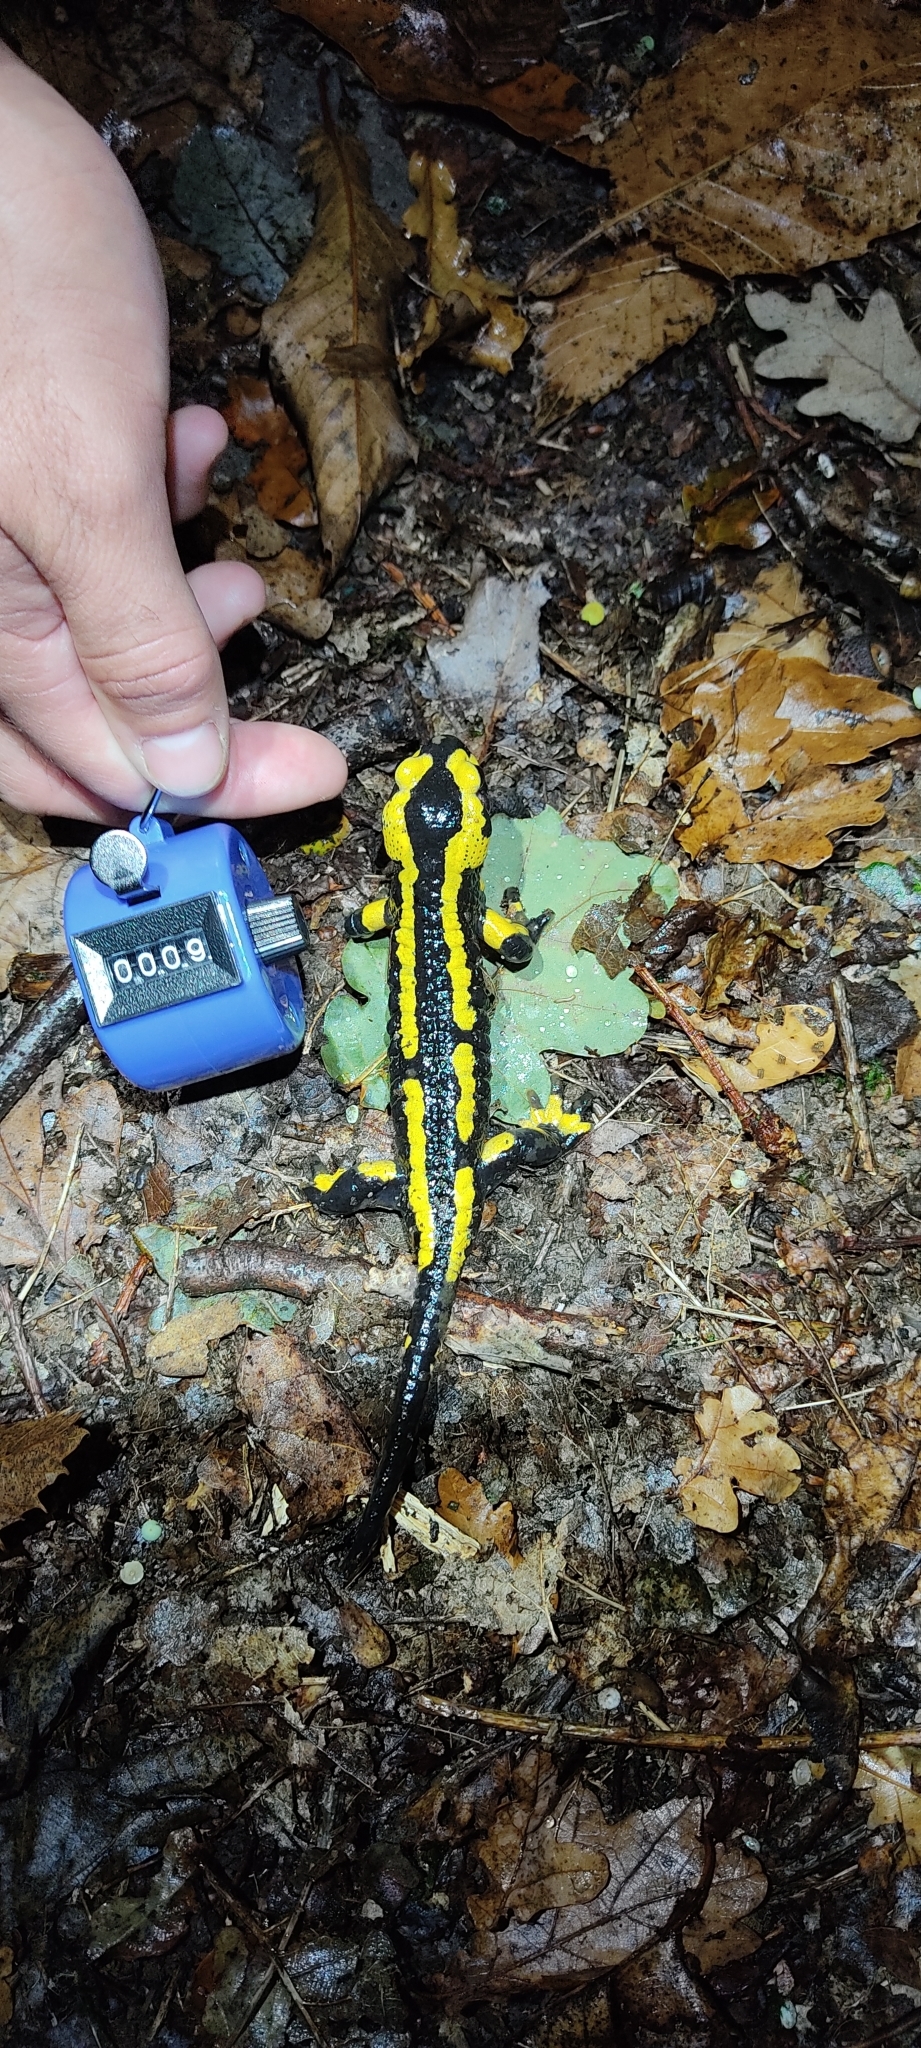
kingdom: Animalia
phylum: Chordata
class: Amphibia
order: Caudata
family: Salamandridae
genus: Salamandra
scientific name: Salamandra salamandra
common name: Fire salamander
